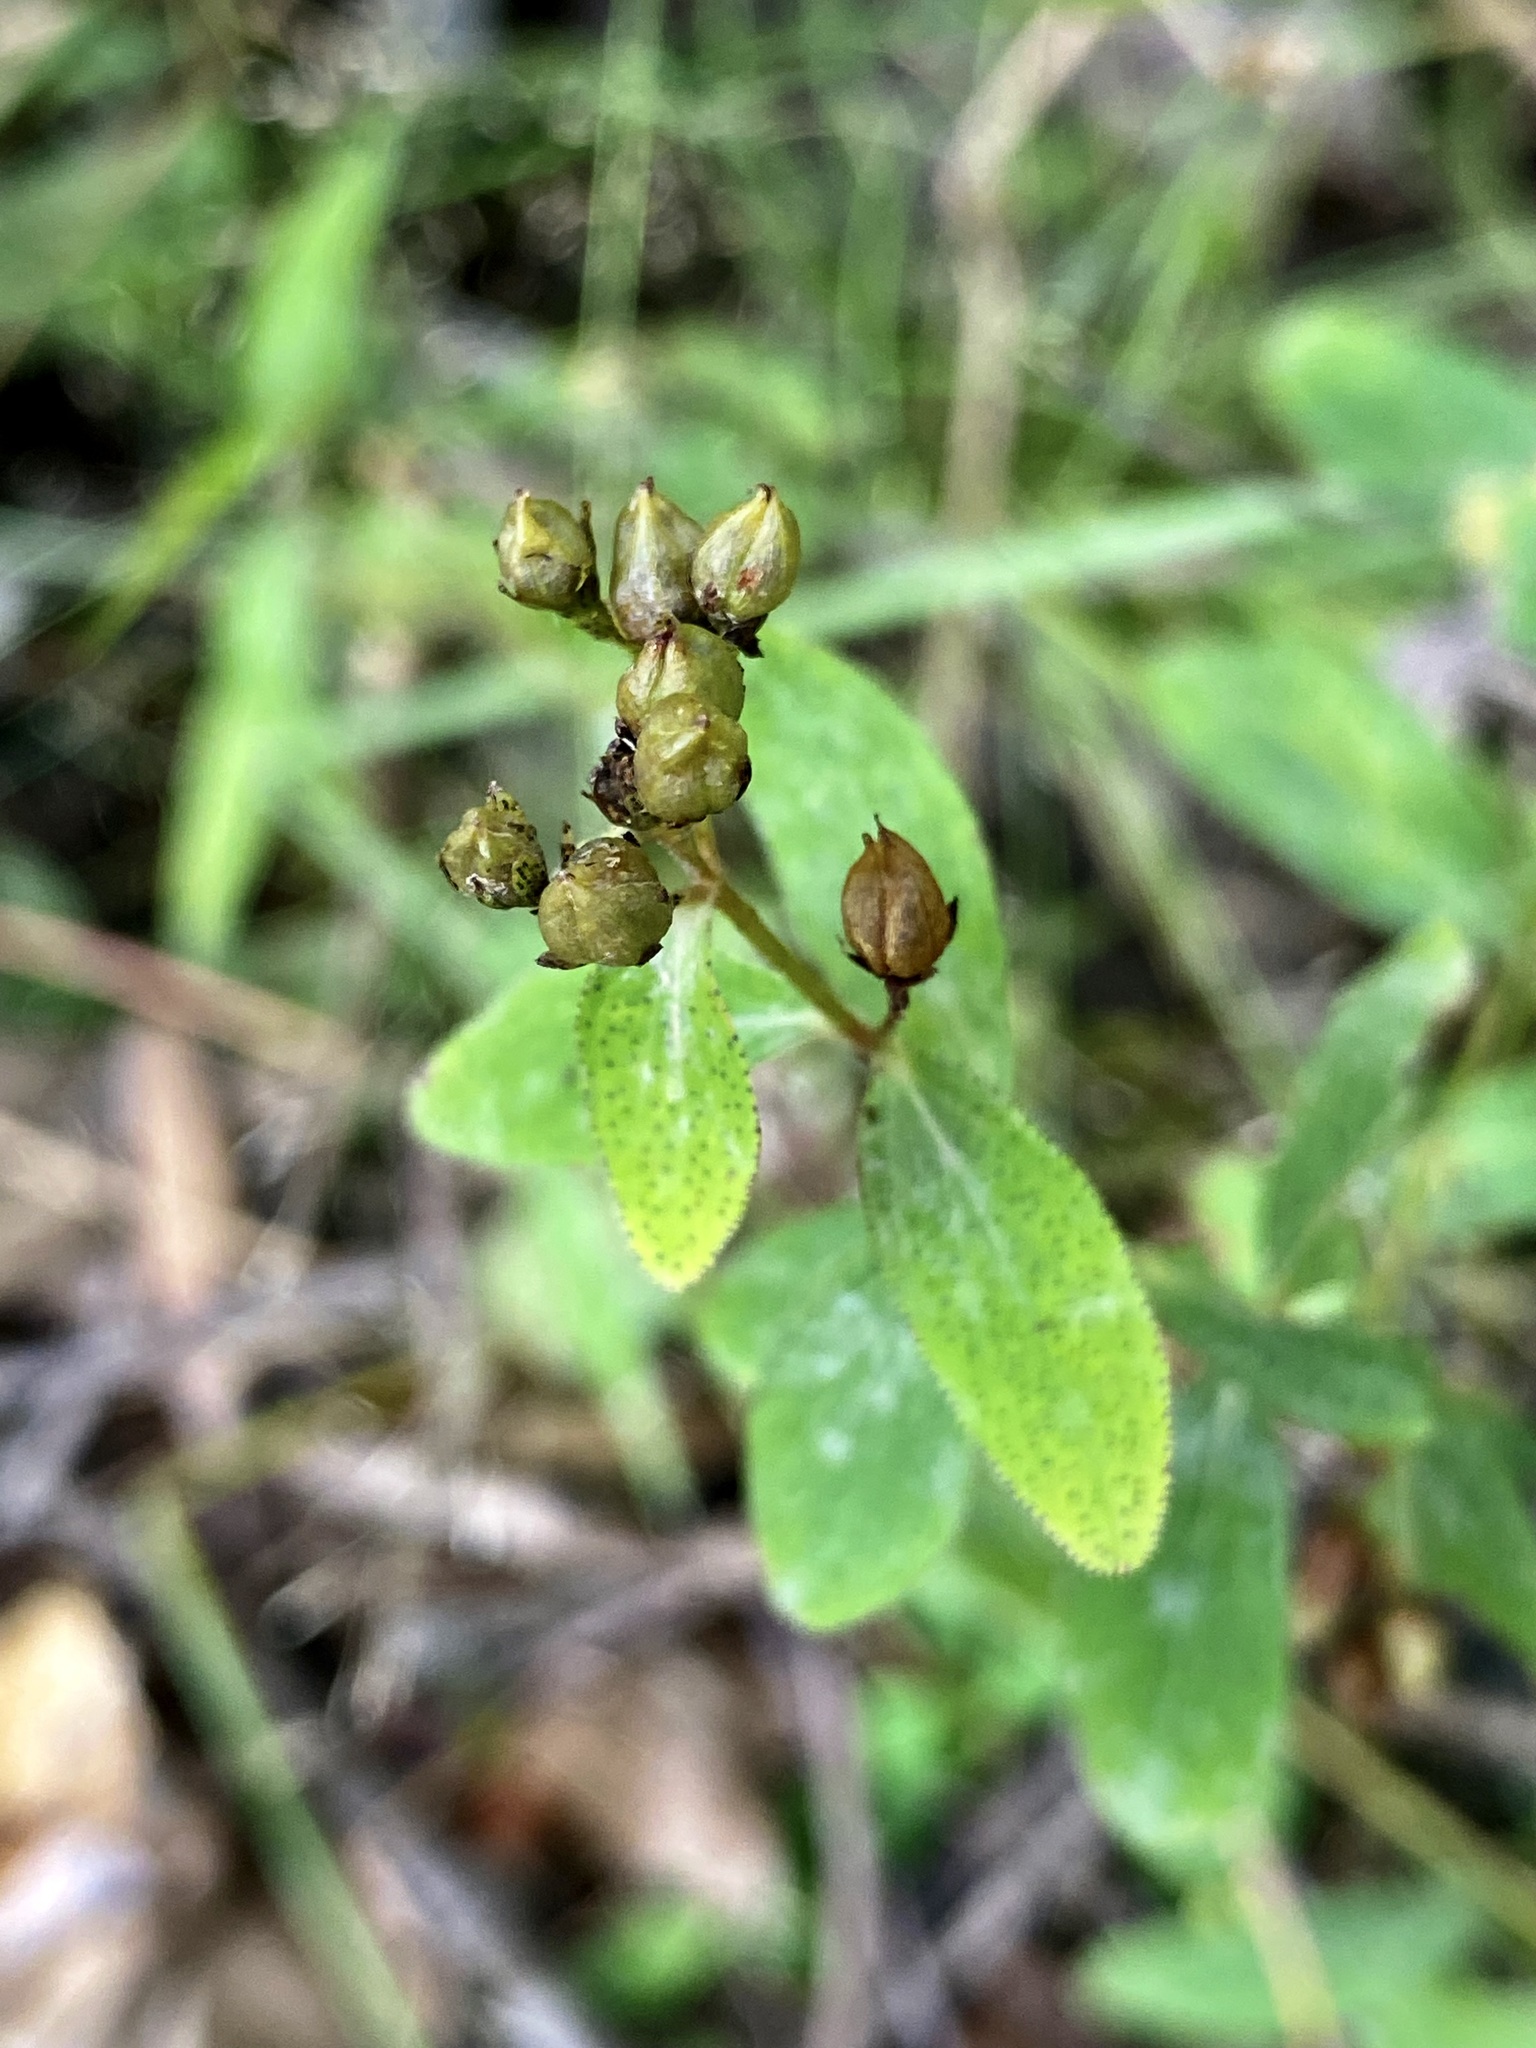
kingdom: Plantae
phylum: Tracheophyta
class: Magnoliopsida
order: Malpighiales
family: Hypericaceae
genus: Hypericum
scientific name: Hypericum punctatum
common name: Spotted st. john's-wort
